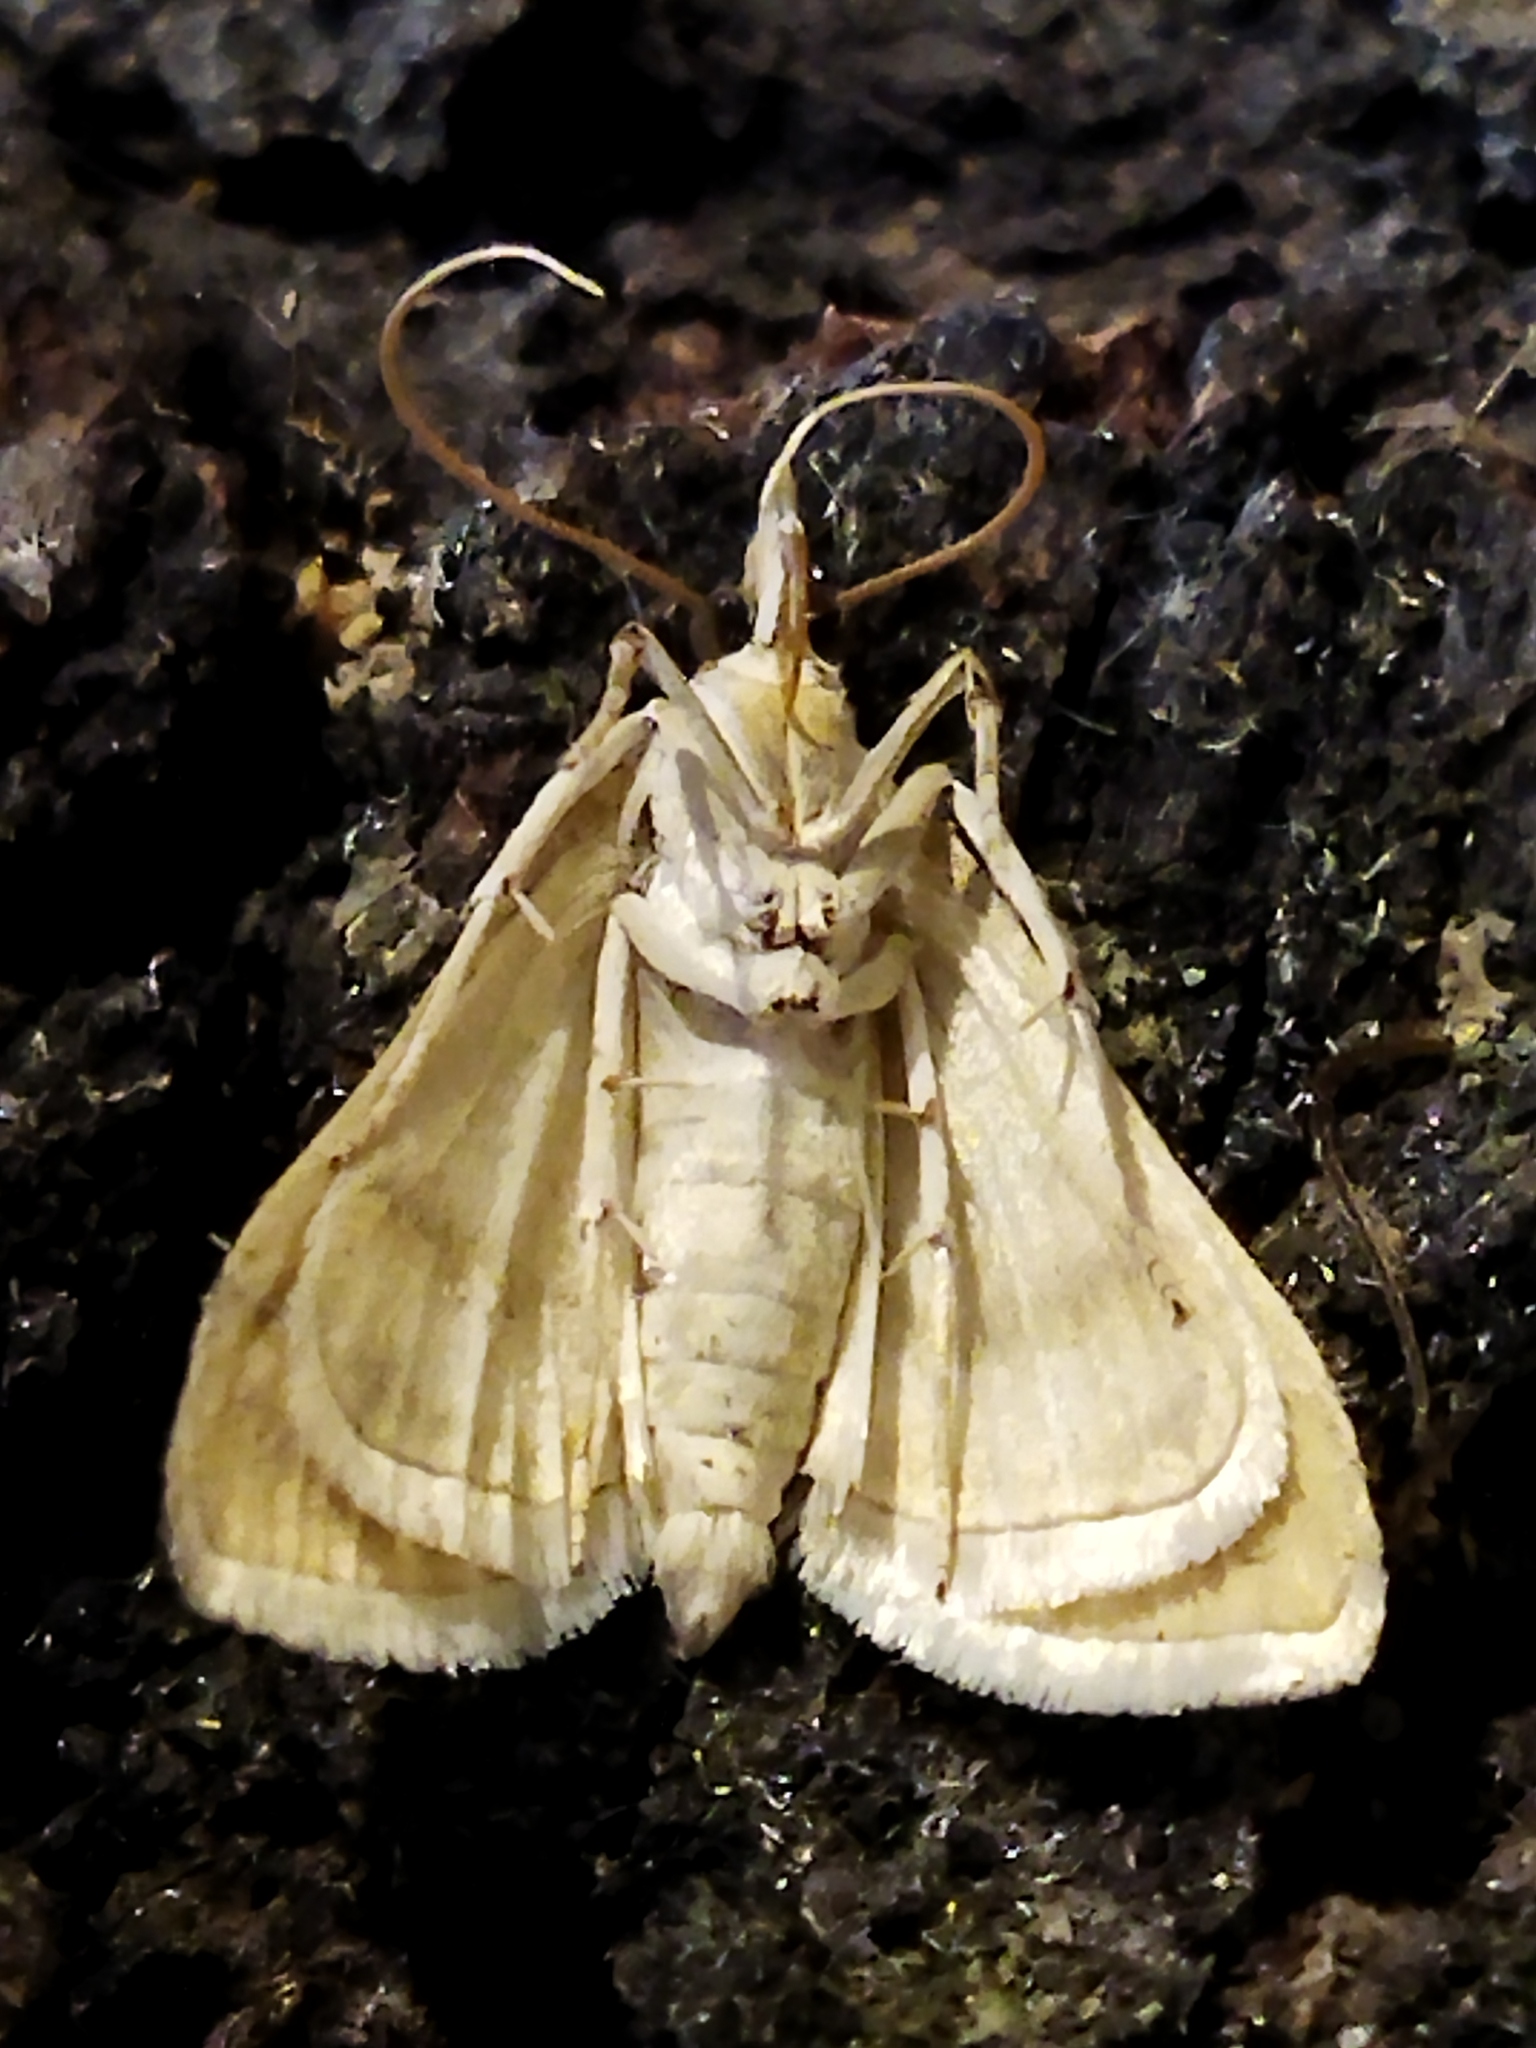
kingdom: Animalia
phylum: Arthropoda
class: Insecta
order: Lepidoptera
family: Crambidae
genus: Paracorsia
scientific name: Paracorsia repandalis
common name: Mullein moth
